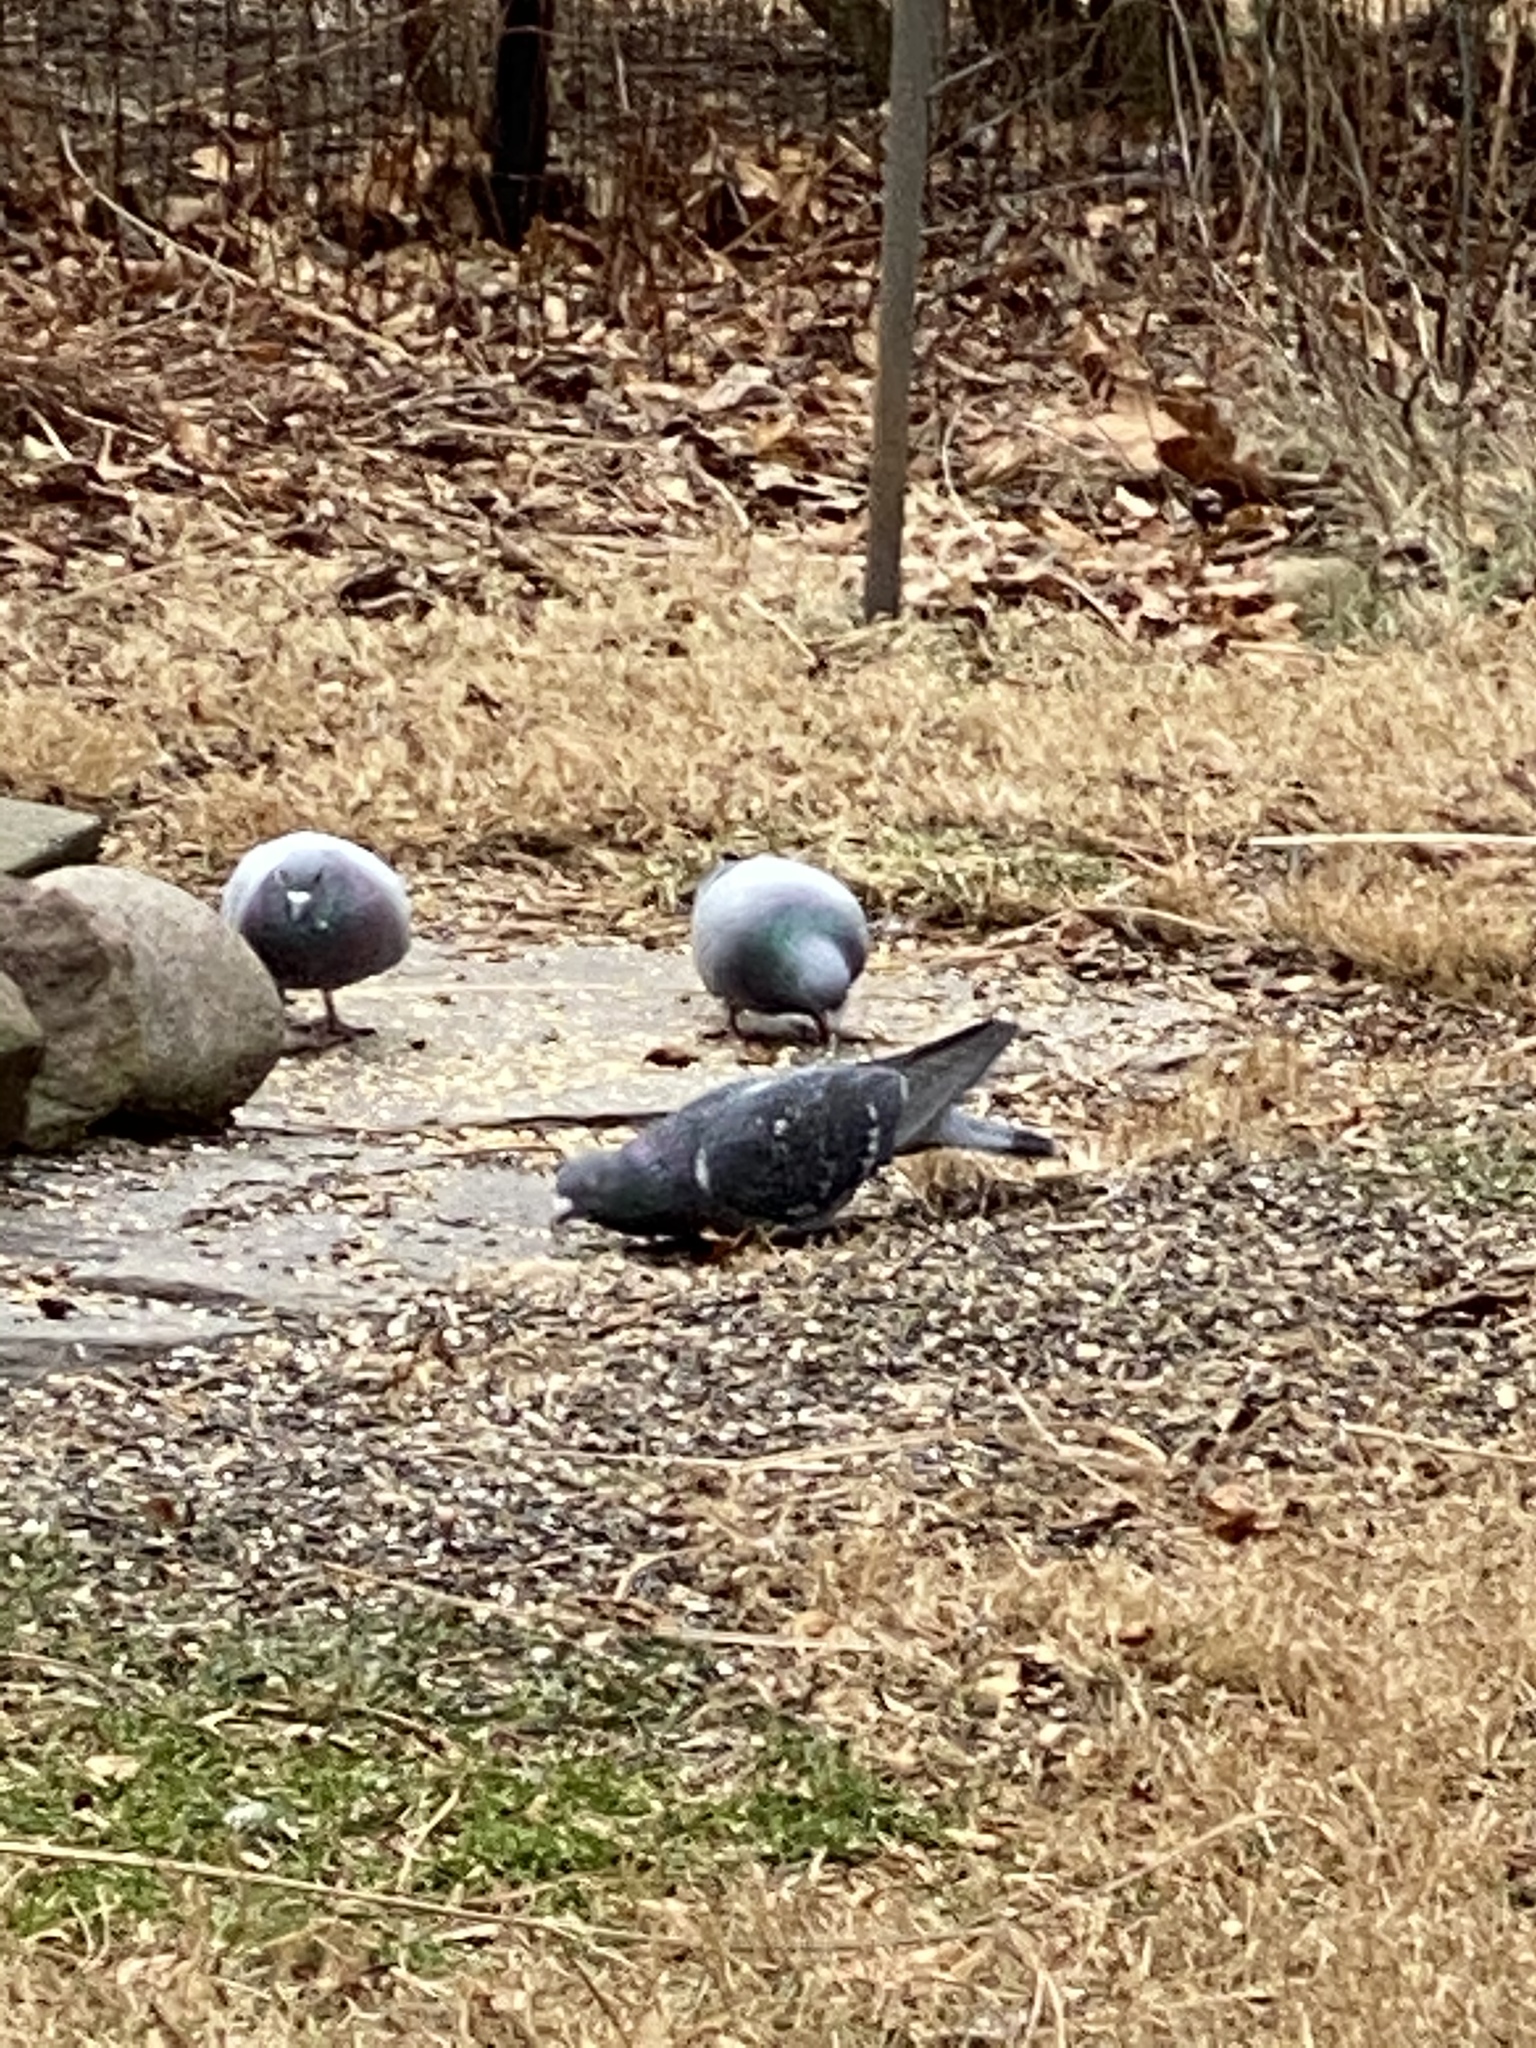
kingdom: Animalia
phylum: Chordata
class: Aves
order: Columbiformes
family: Columbidae
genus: Columba
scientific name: Columba livia
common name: Rock pigeon
